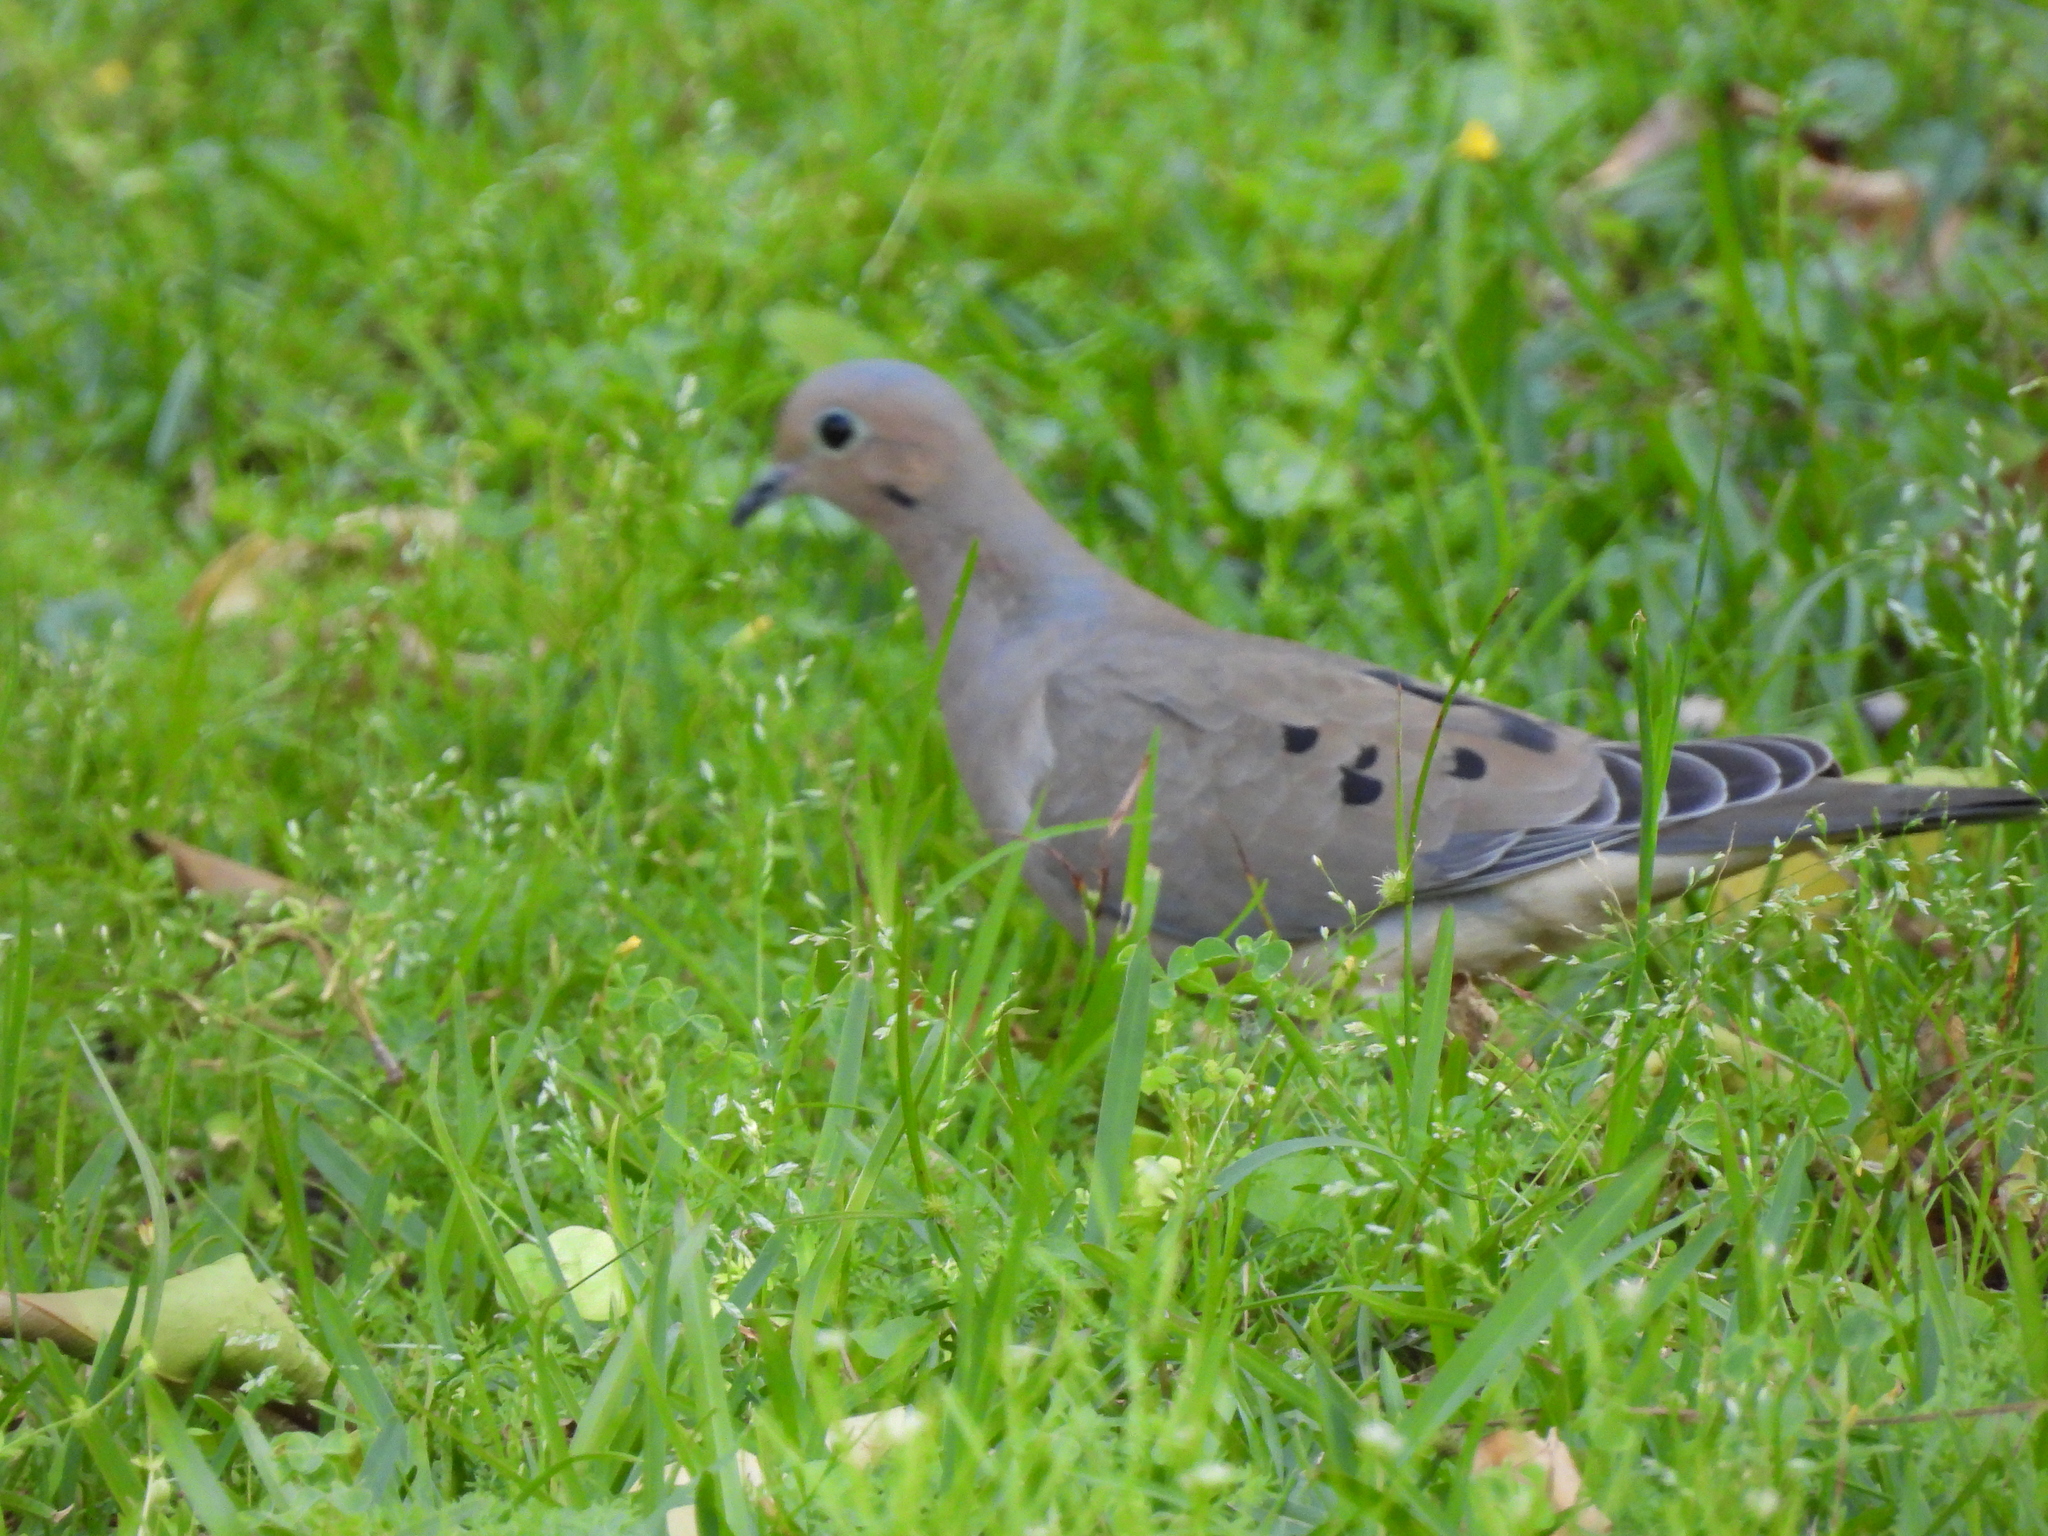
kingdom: Animalia
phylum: Chordata
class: Aves
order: Columbiformes
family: Columbidae
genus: Zenaida
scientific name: Zenaida macroura
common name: Mourning dove
